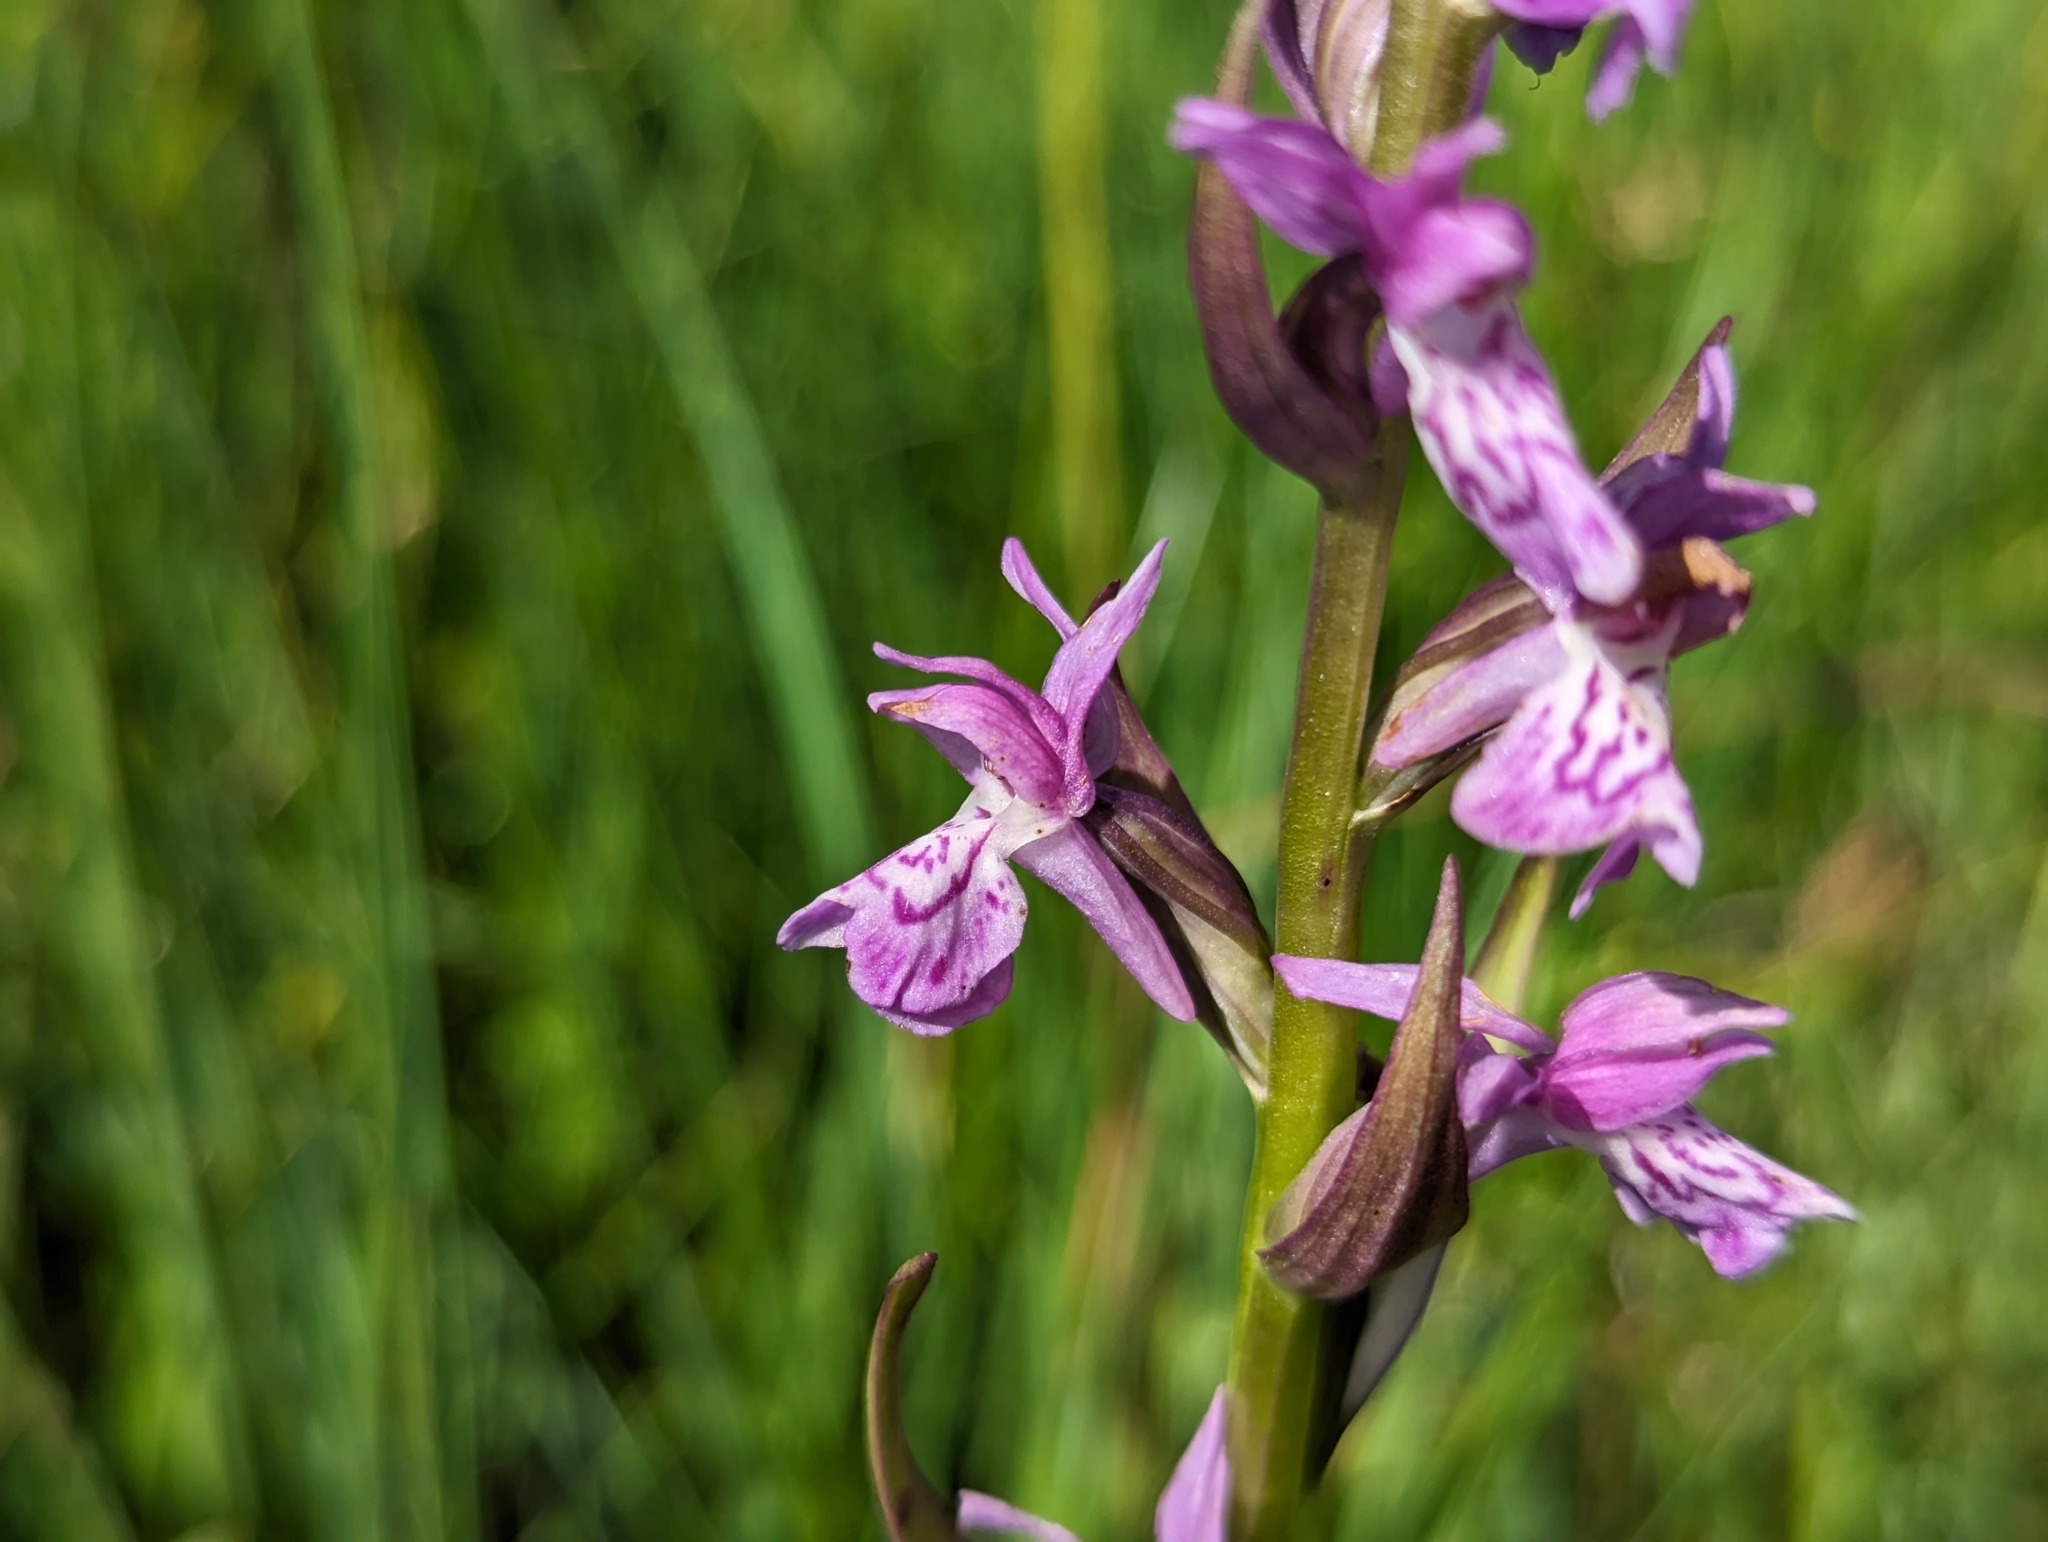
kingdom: Plantae
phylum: Tracheophyta
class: Liliopsida
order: Asparagales
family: Orchidaceae
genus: Dactylorhiza
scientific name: Dactylorhiza majalis
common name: Marsh orchid
